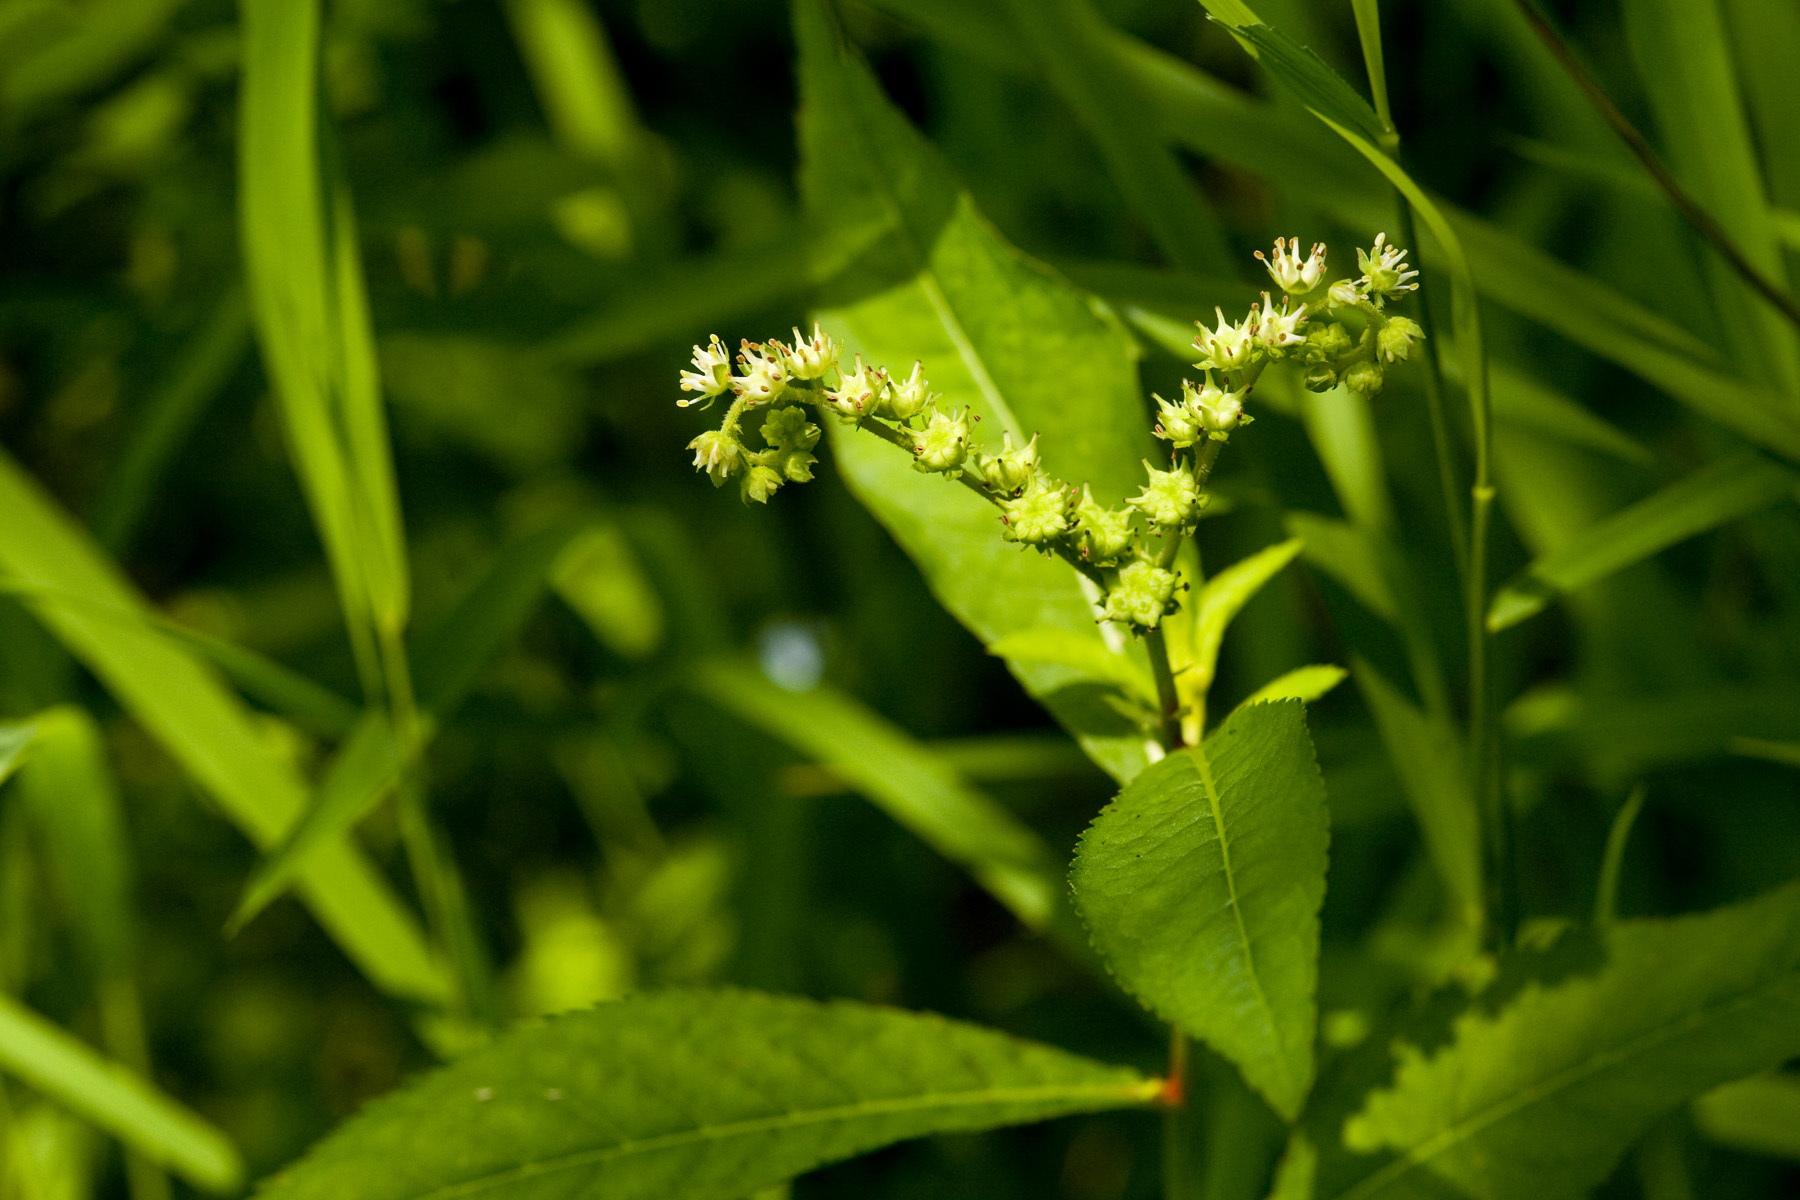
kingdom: Plantae
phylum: Tracheophyta
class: Magnoliopsida
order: Saxifragales
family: Penthoraceae
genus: Penthorum
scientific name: Penthorum sedoides
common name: Ditch stonecrop
